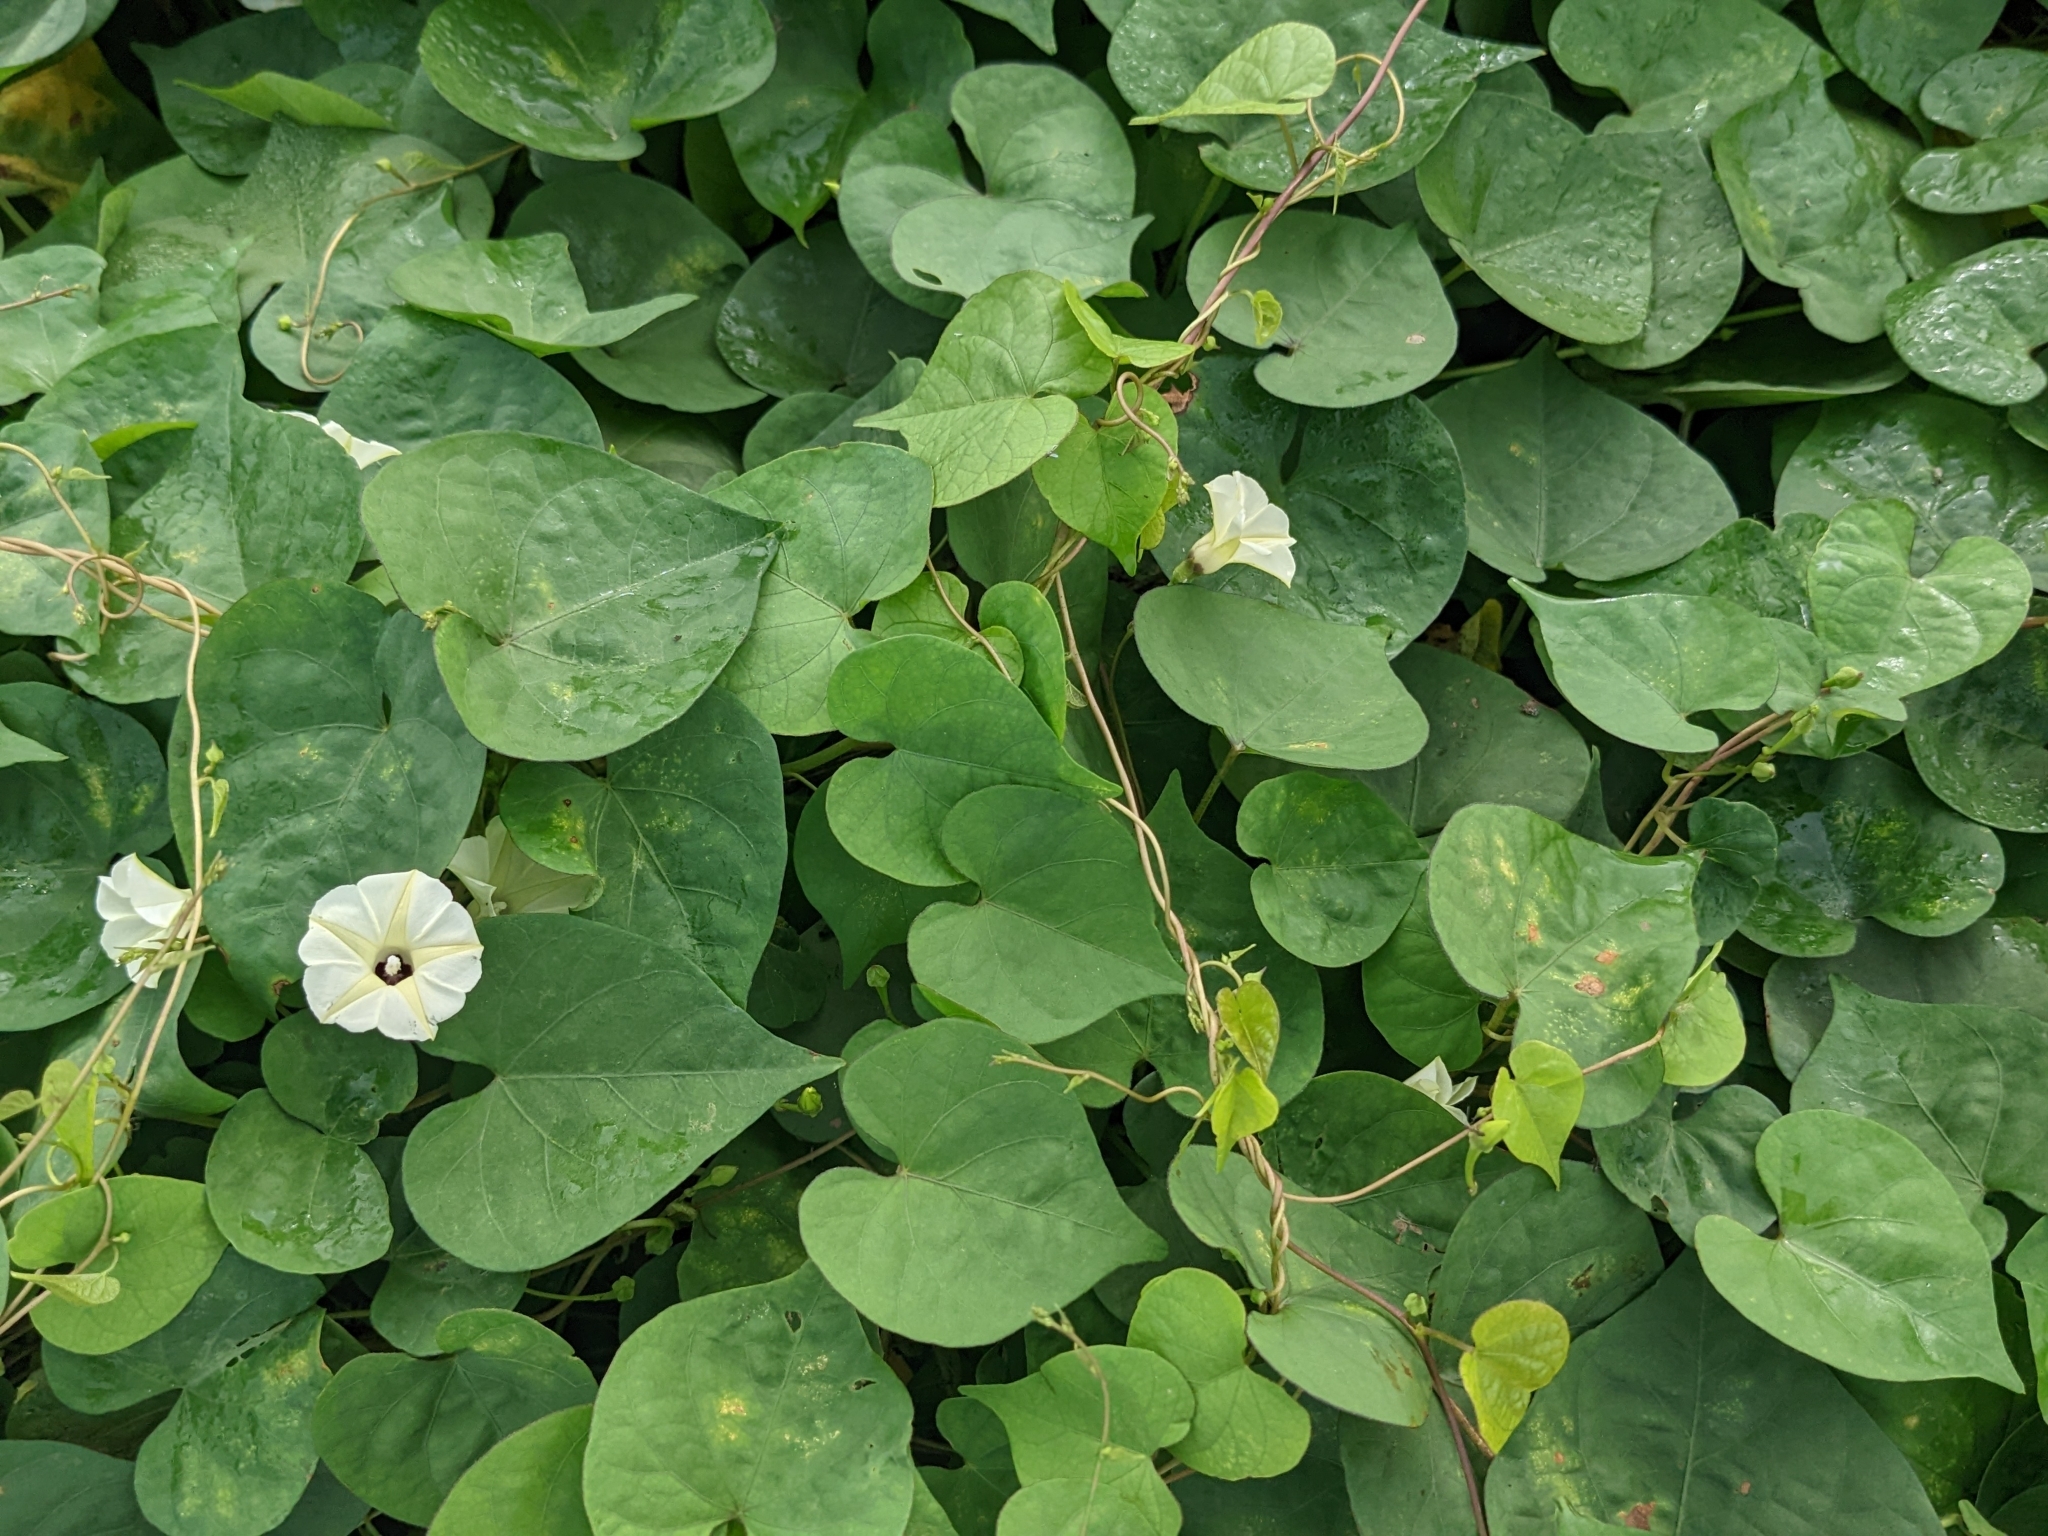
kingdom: Plantae
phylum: Tracheophyta
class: Magnoliopsida
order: Solanales
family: Convolvulaceae
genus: Ipomoea
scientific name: Ipomoea obscura
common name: Obscure morning-glory
